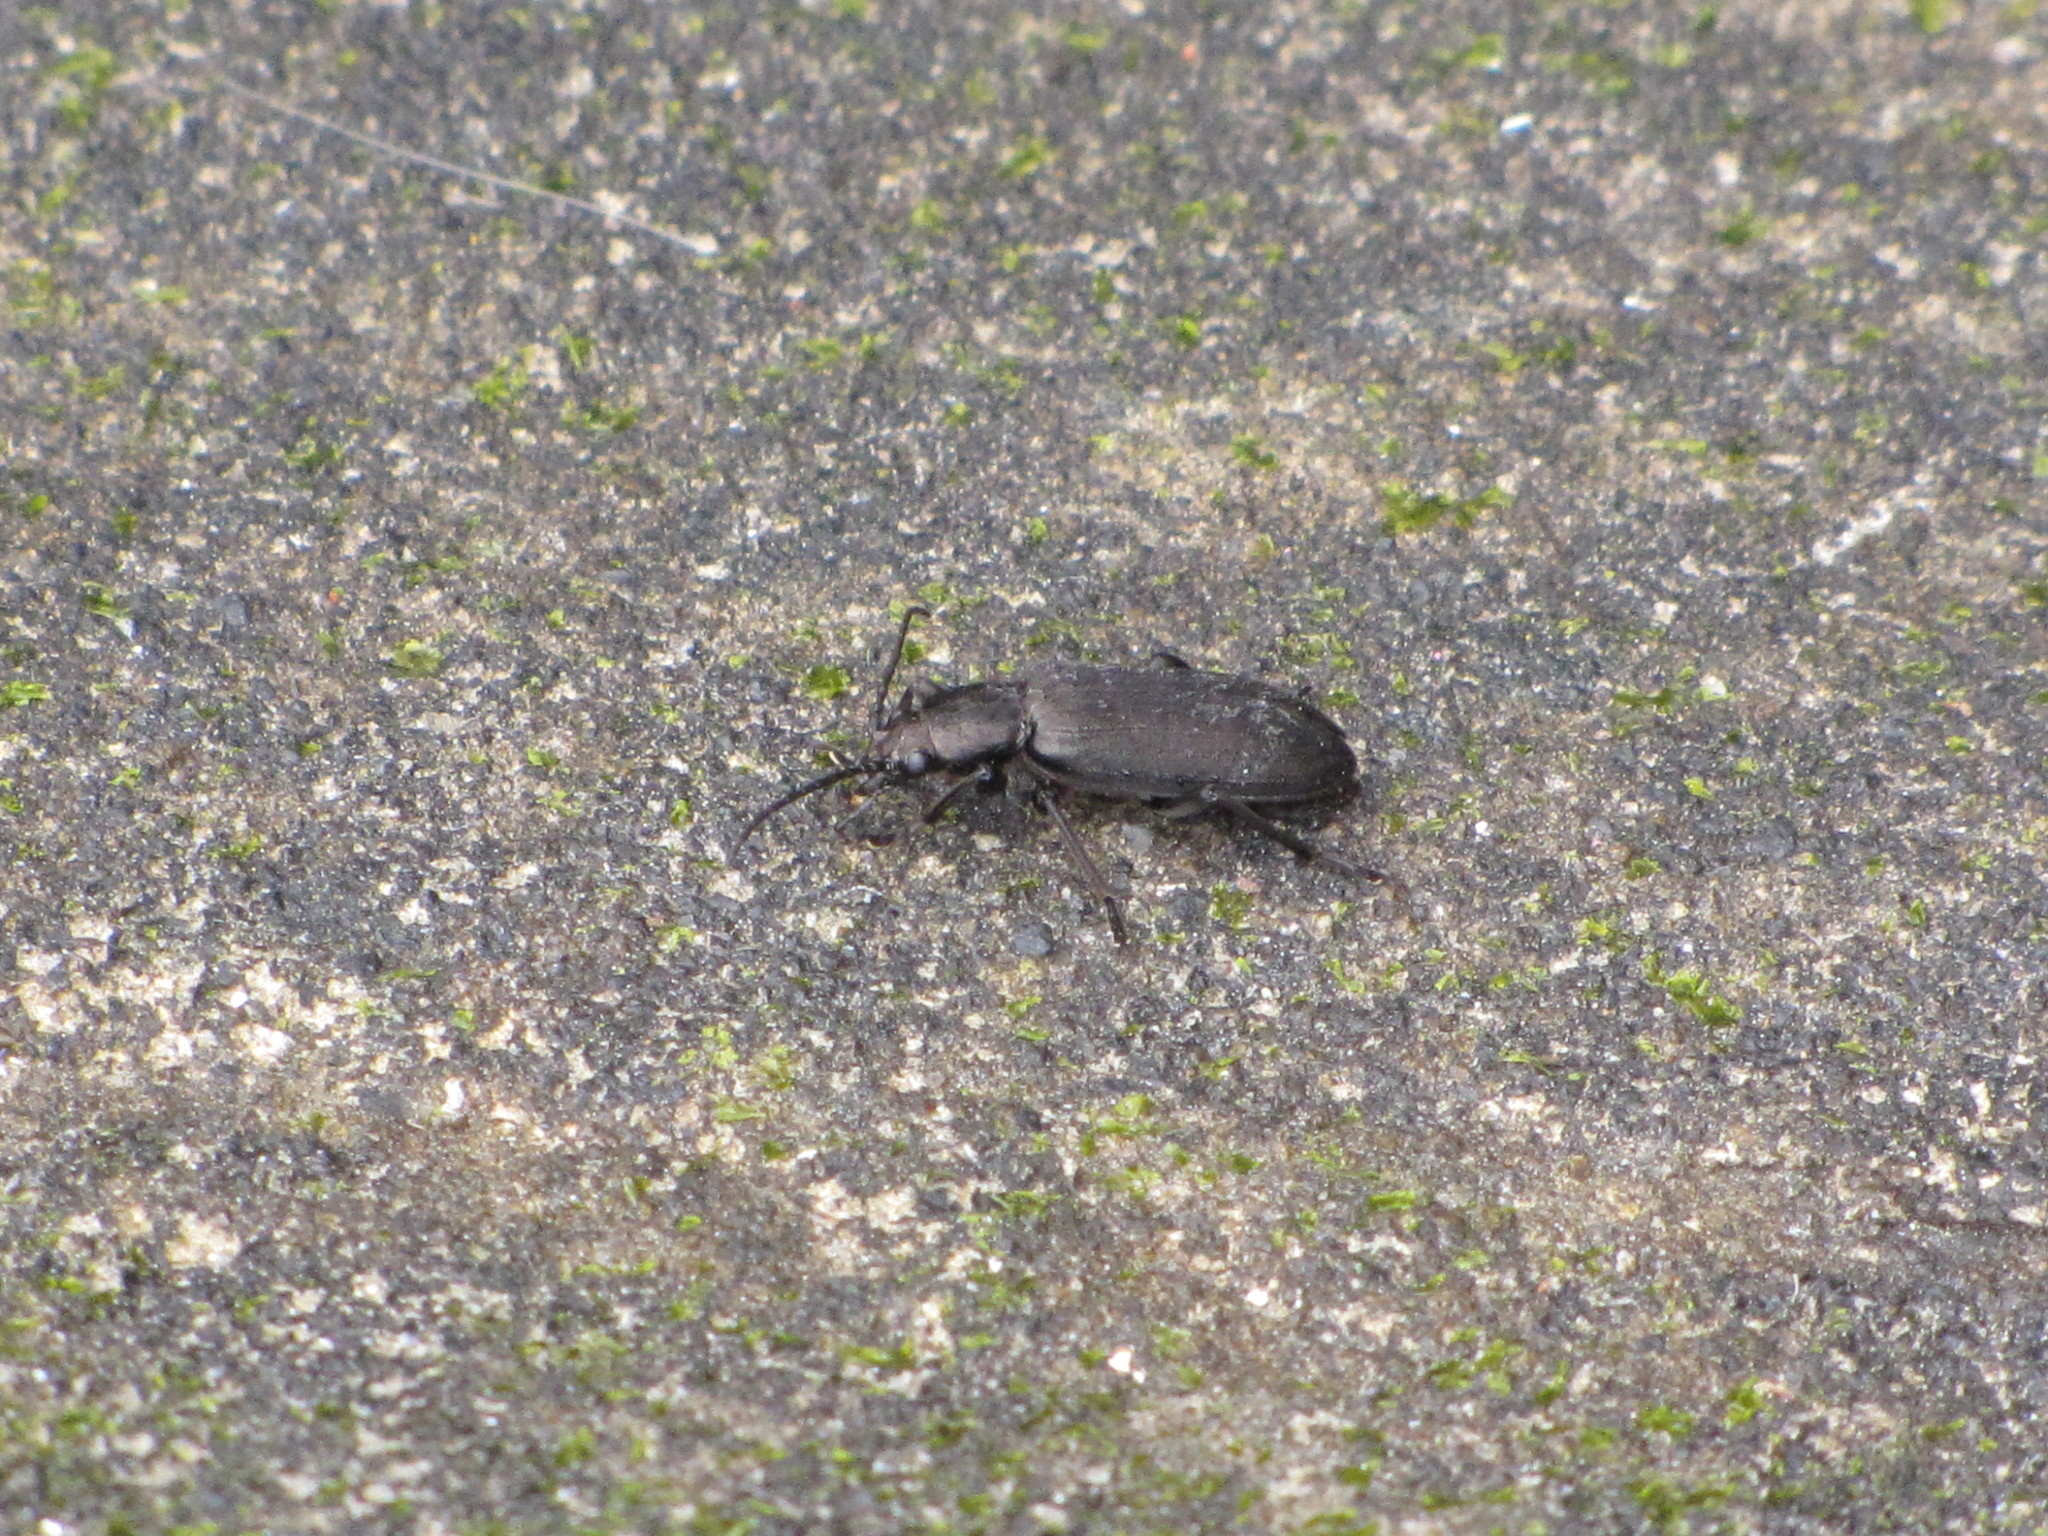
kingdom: Animalia
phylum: Arthropoda
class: Insecta
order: Coleoptera
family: Oedemeridae
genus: Ditylus
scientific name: Ditylus quadricollis
